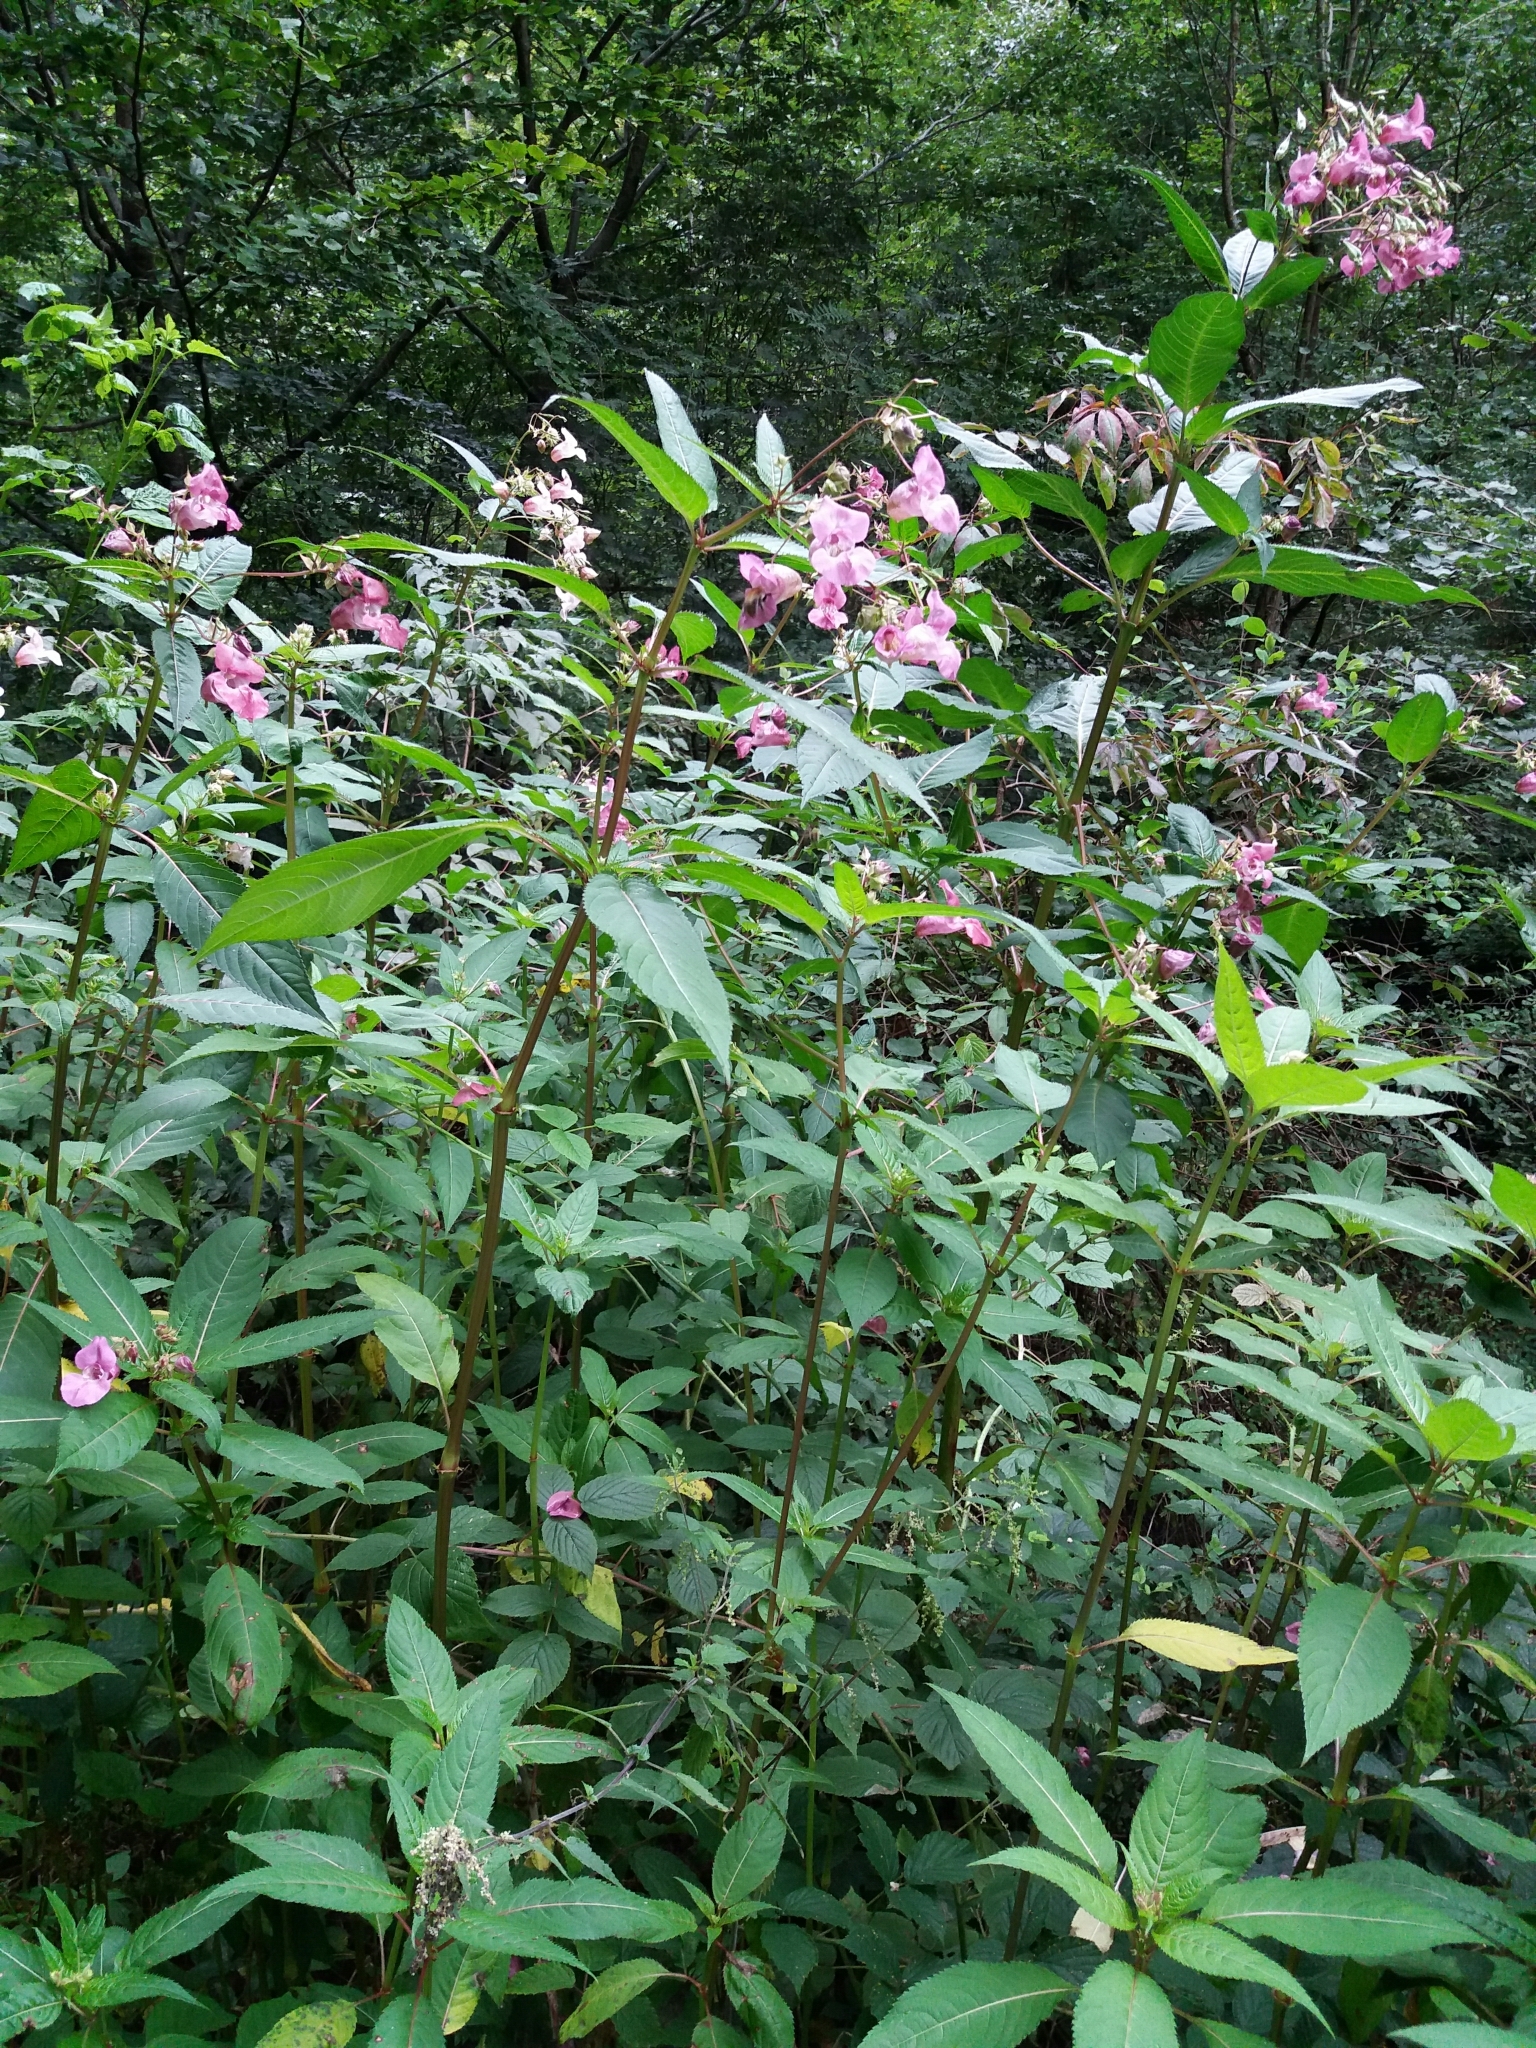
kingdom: Plantae
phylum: Tracheophyta
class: Magnoliopsida
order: Ericales
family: Balsaminaceae
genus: Impatiens
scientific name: Impatiens glandulifera
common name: Himalayan balsam
